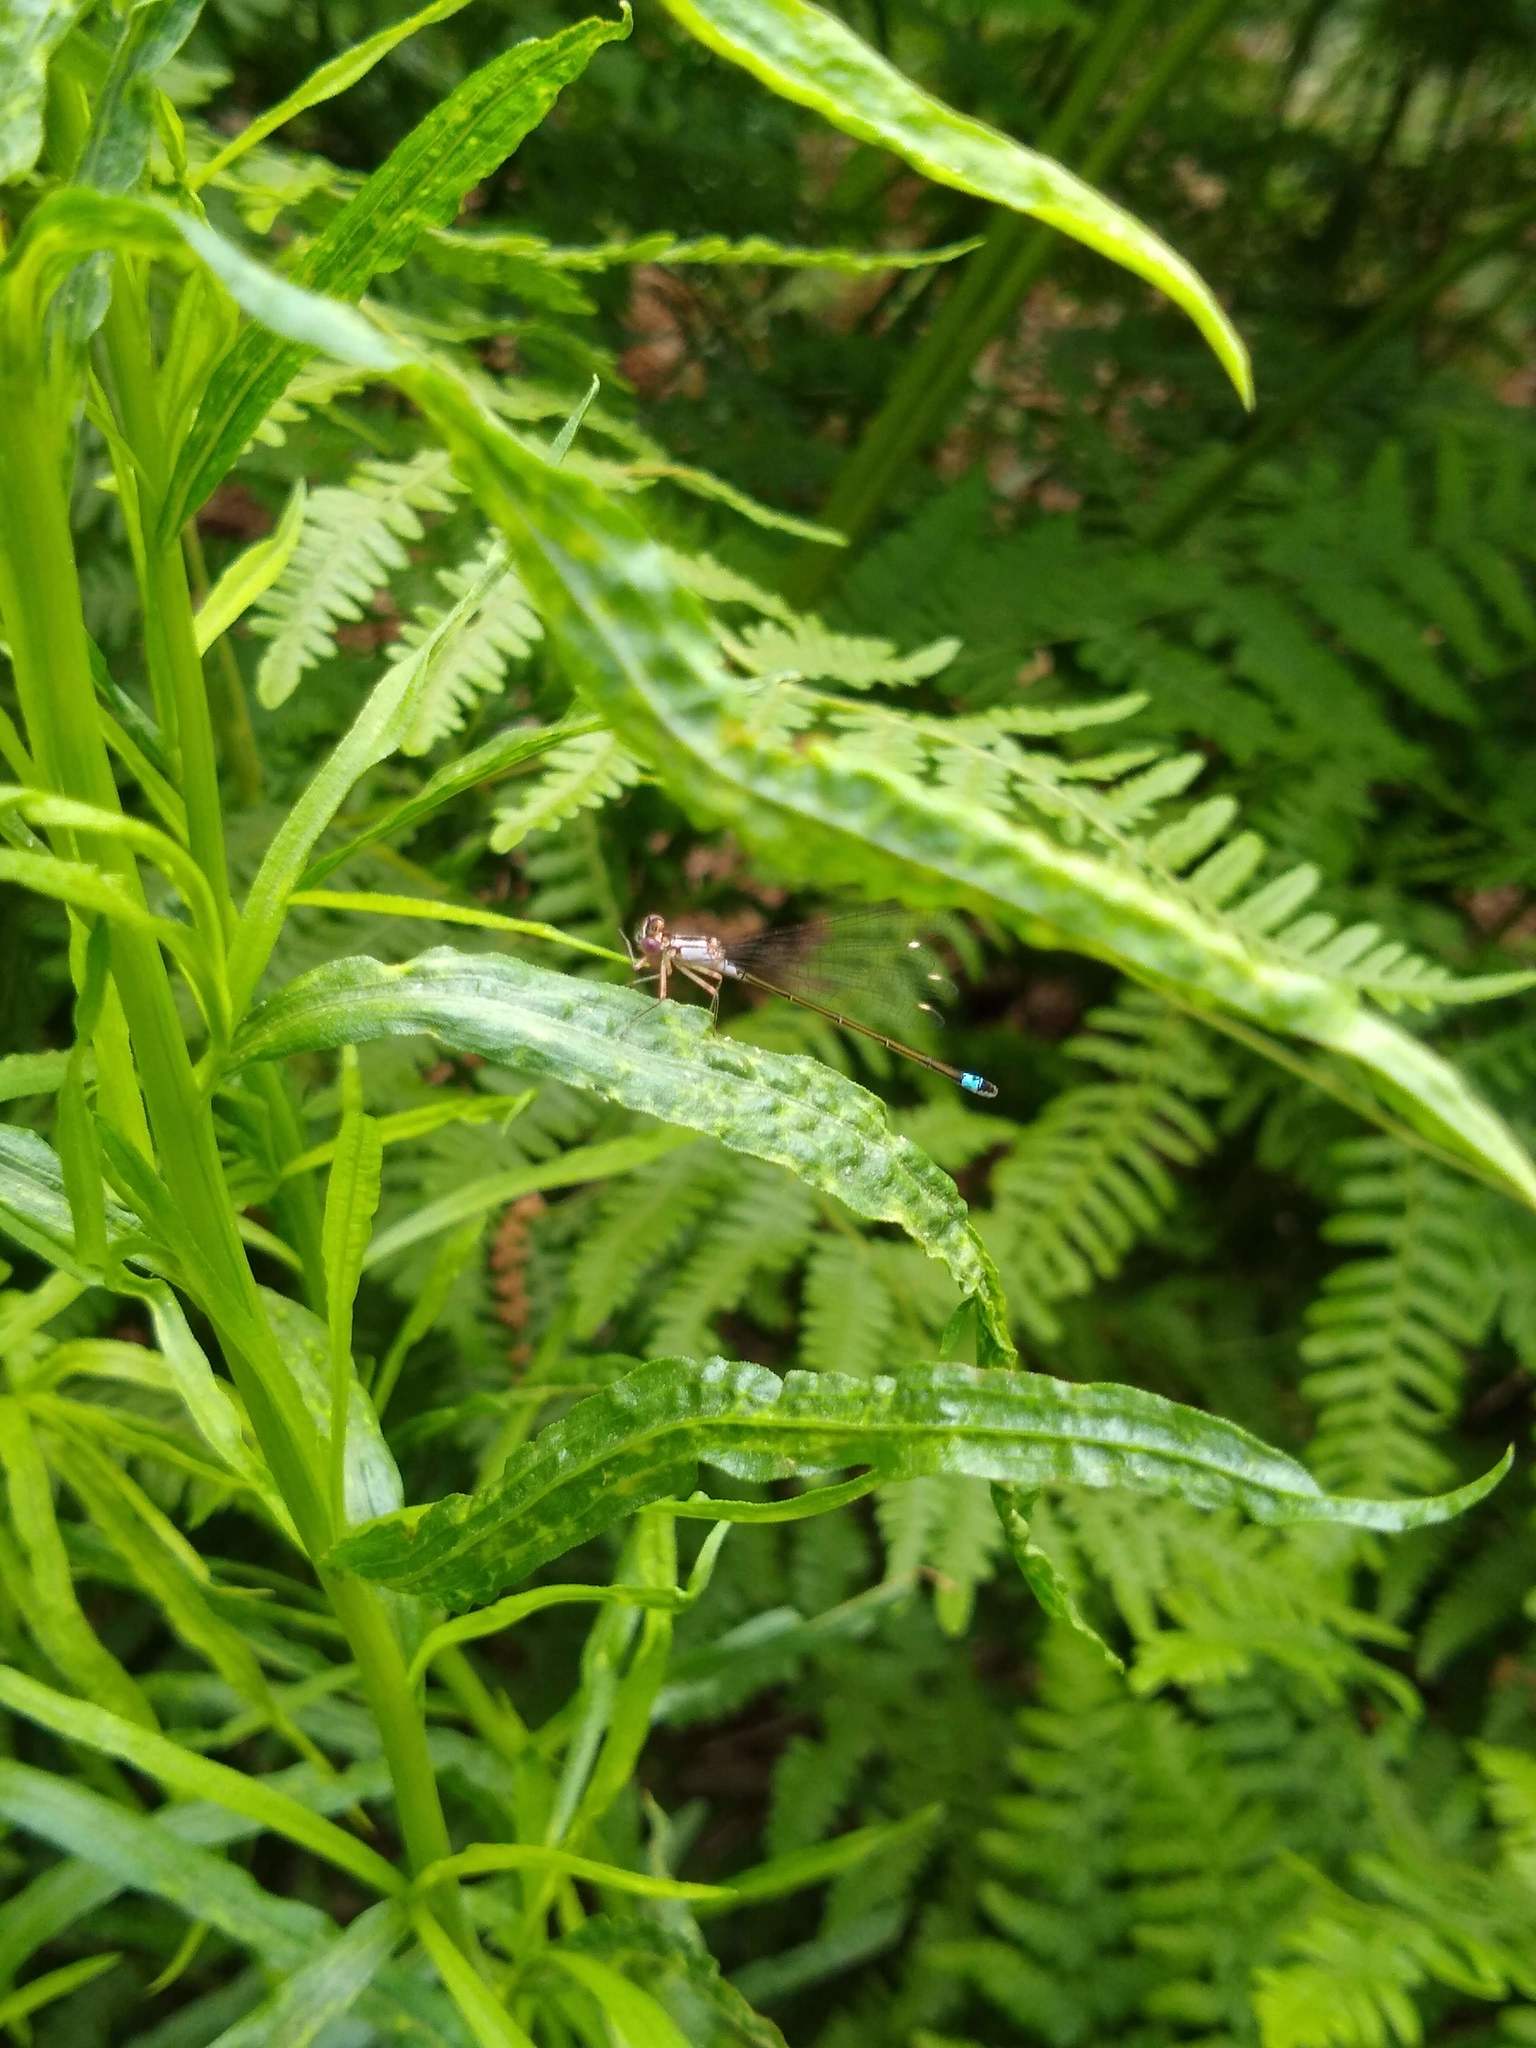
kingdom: Animalia
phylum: Arthropoda
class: Insecta
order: Odonata
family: Coenagrionidae
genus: Ischnura
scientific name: Ischnura cervula
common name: Pacific forktail
